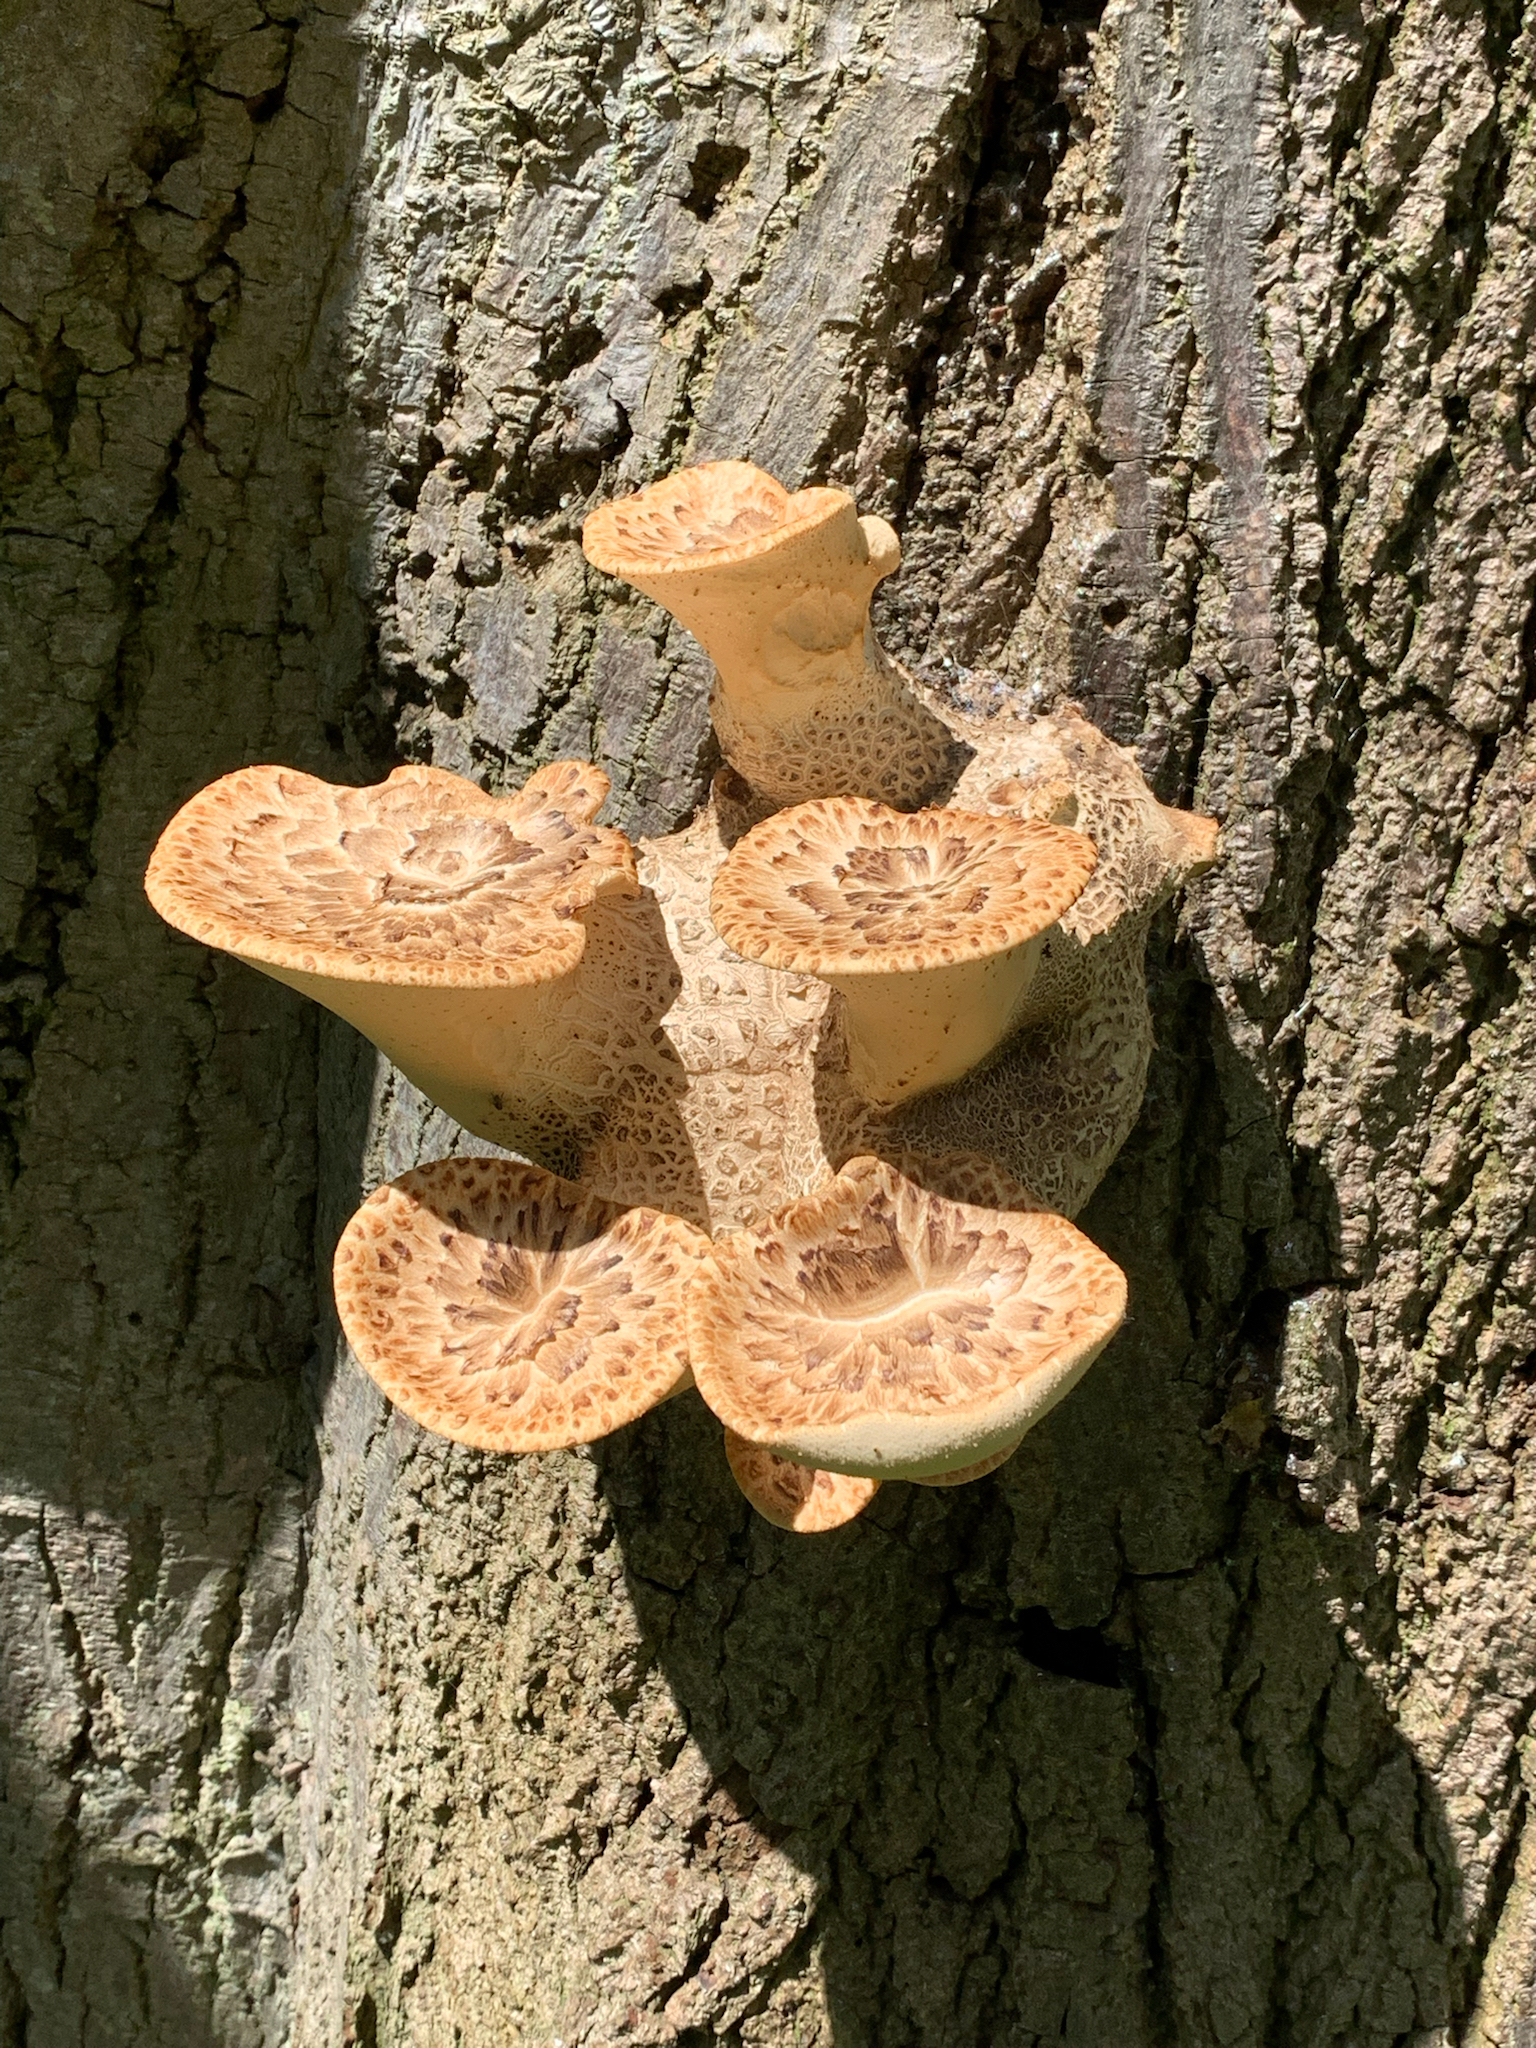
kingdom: Fungi
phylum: Basidiomycota
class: Agaricomycetes
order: Polyporales
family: Polyporaceae
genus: Cerioporus
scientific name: Cerioporus squamosus
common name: Dryad's saddle
